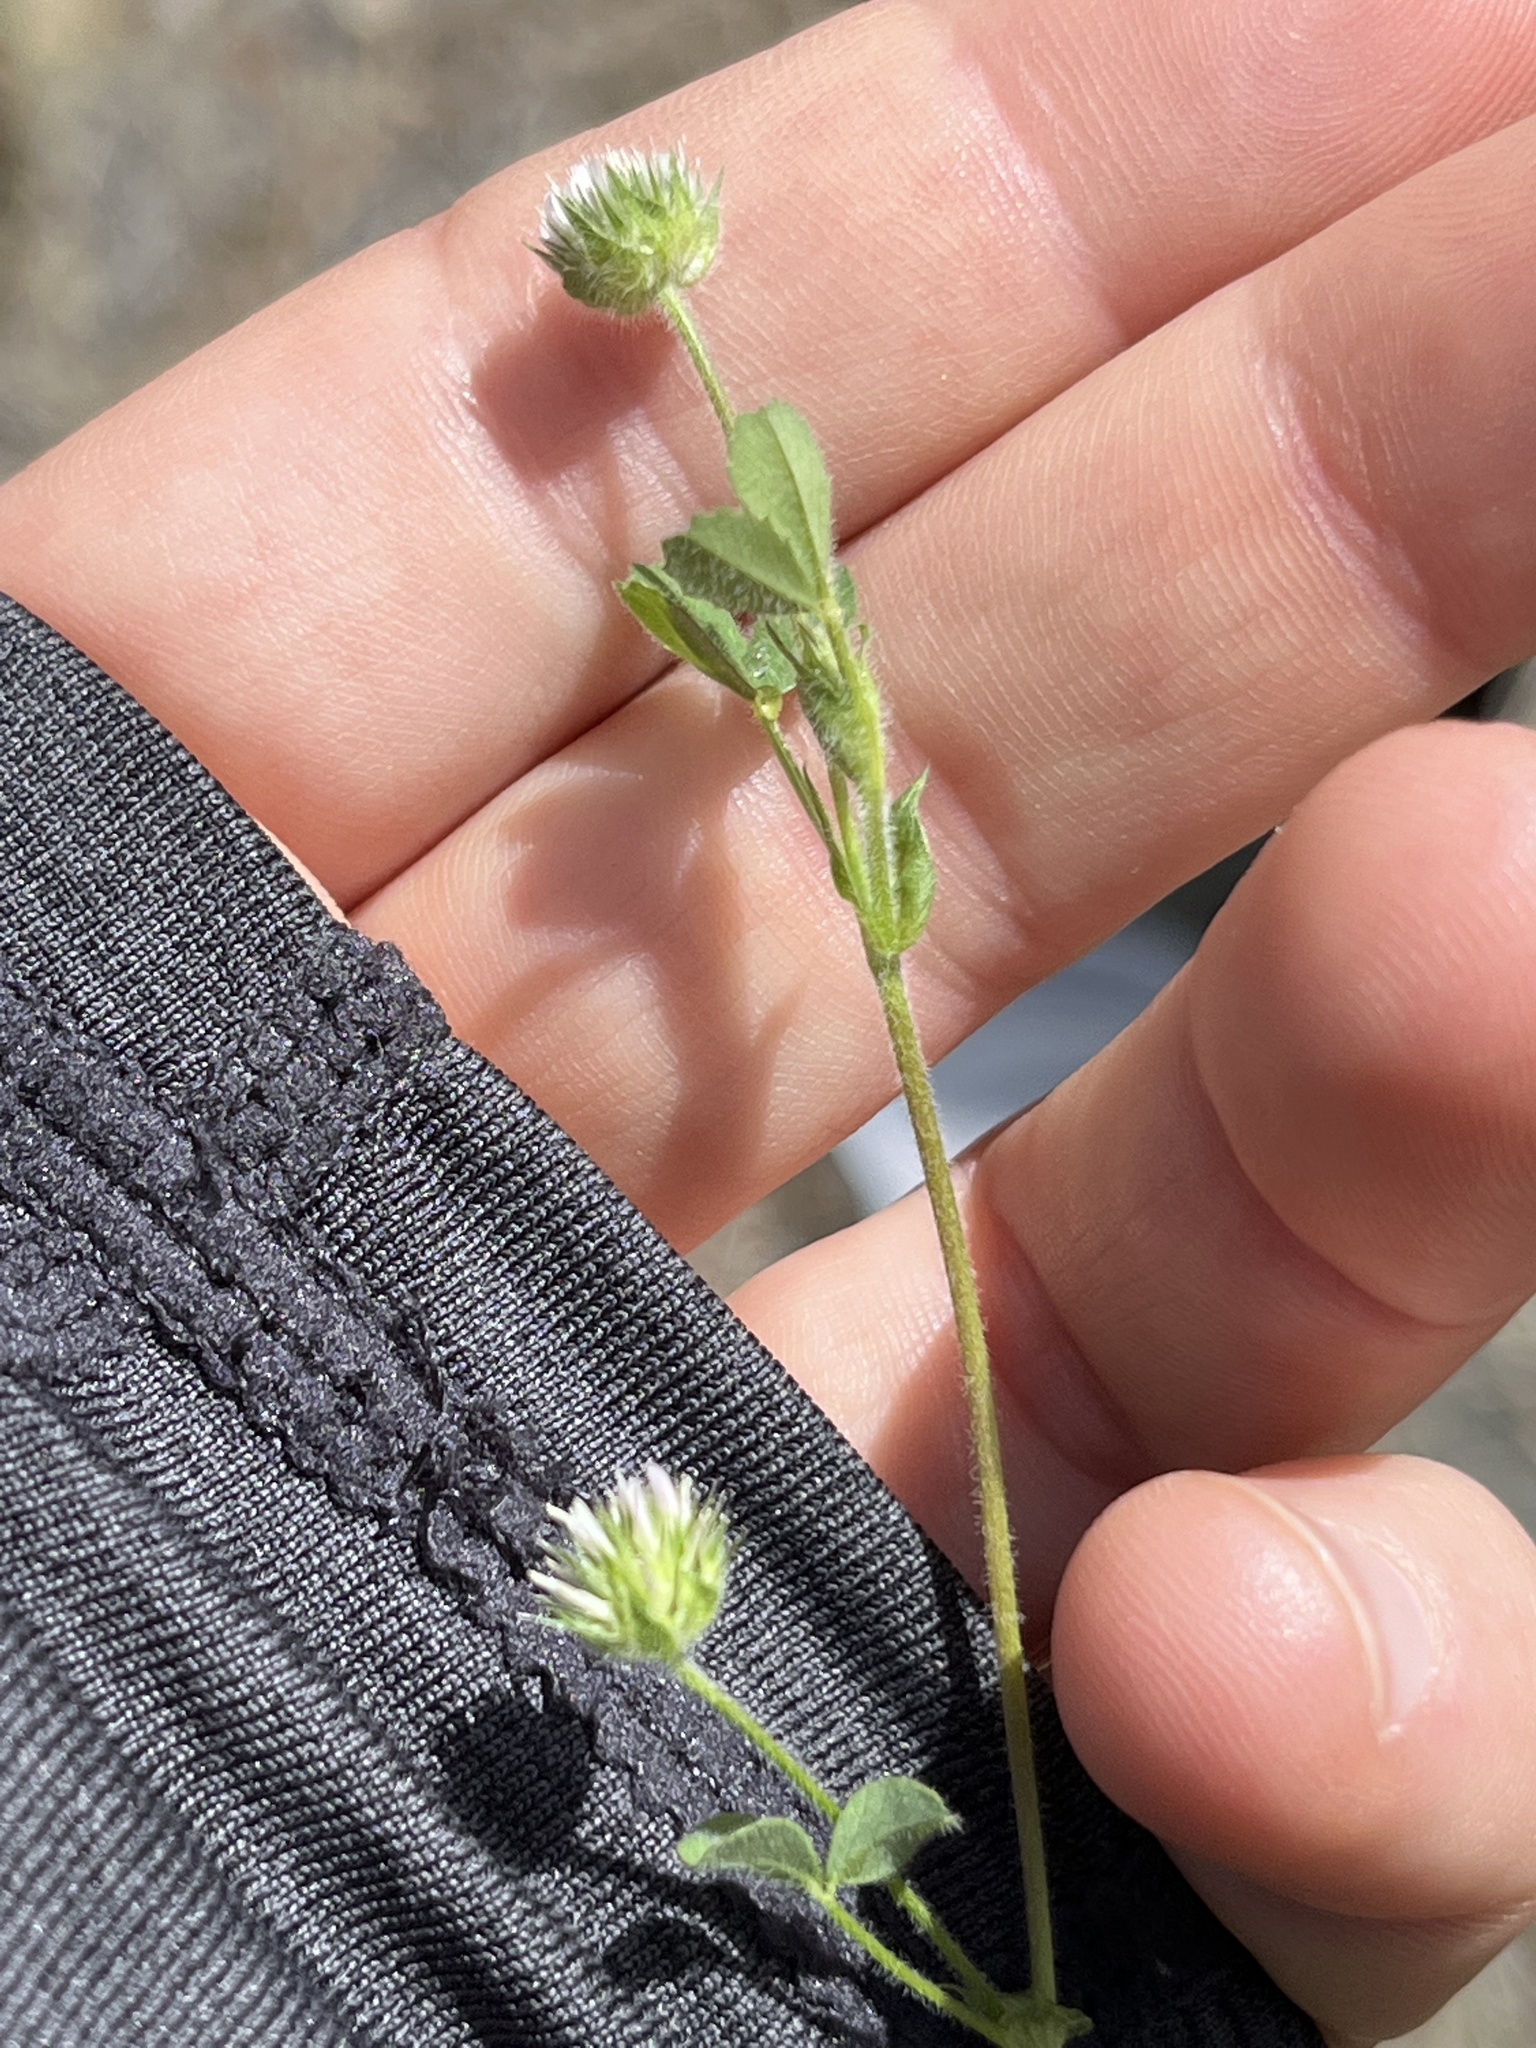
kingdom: Plantae
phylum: Tracheophyta
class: Magnoliopsida
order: Fabales
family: Fabaceae
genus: Trifolium
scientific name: Trifolium microcephalum
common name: Maiden clover
